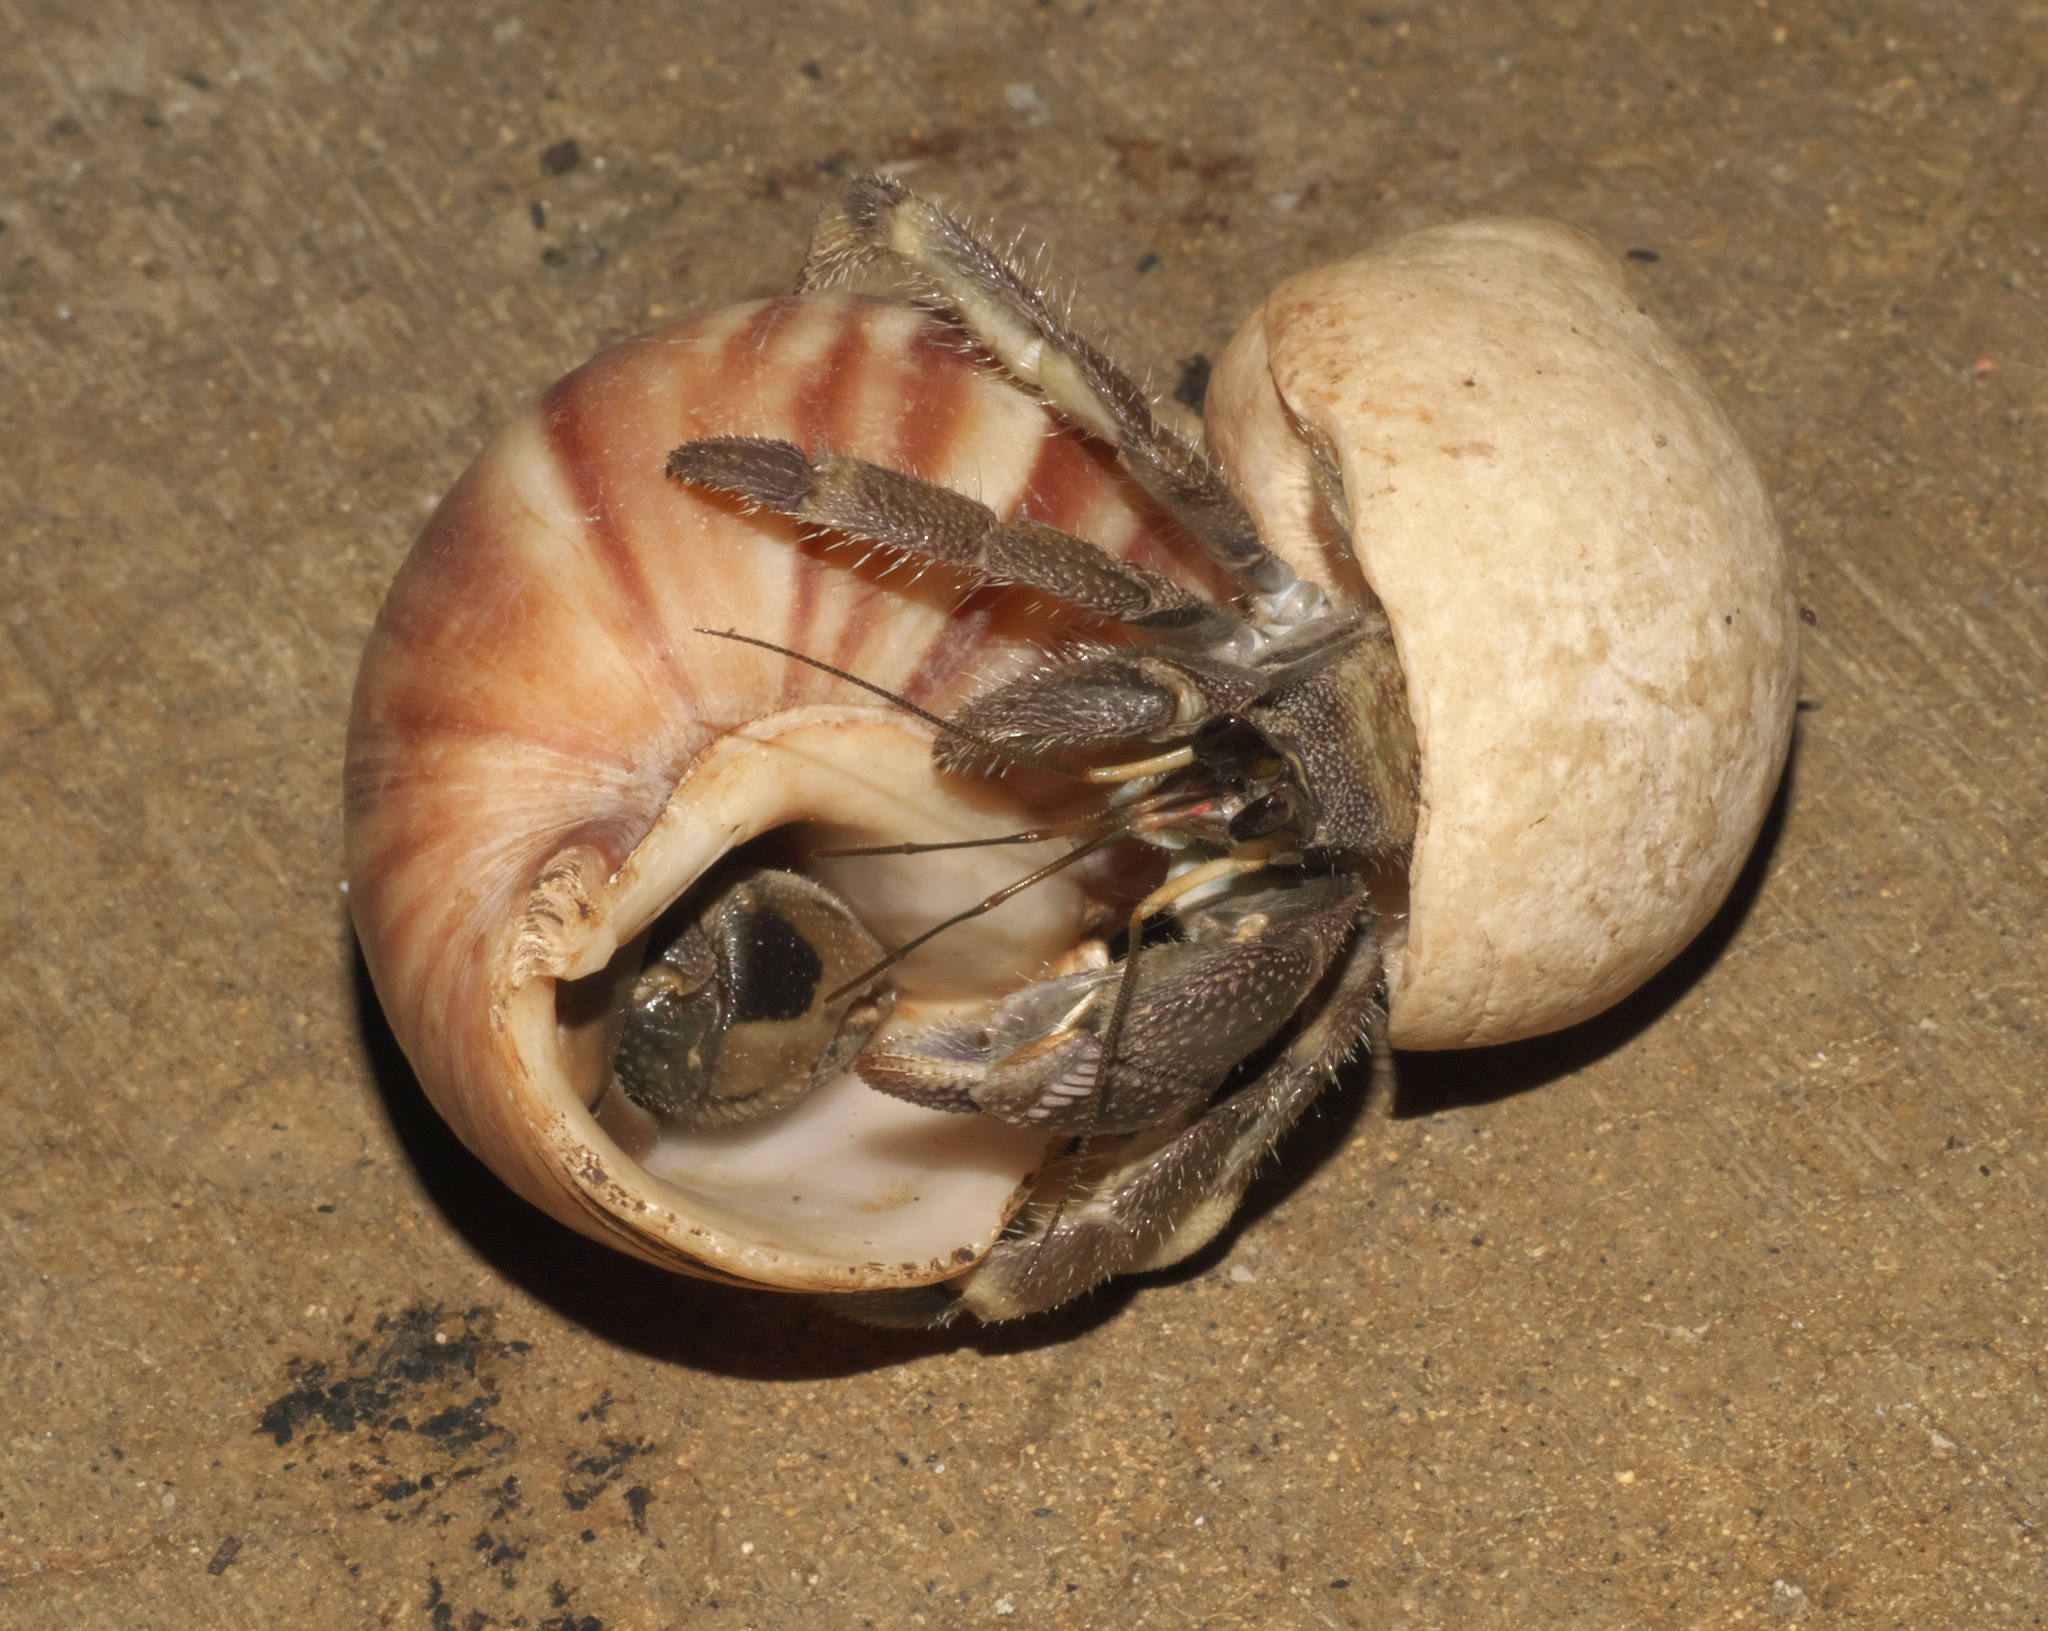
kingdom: Animalia
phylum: Arthropoda
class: Malacostraca
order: Decapoda
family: Coenobitidae
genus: Coenobita
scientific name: Coenobita rugosus
